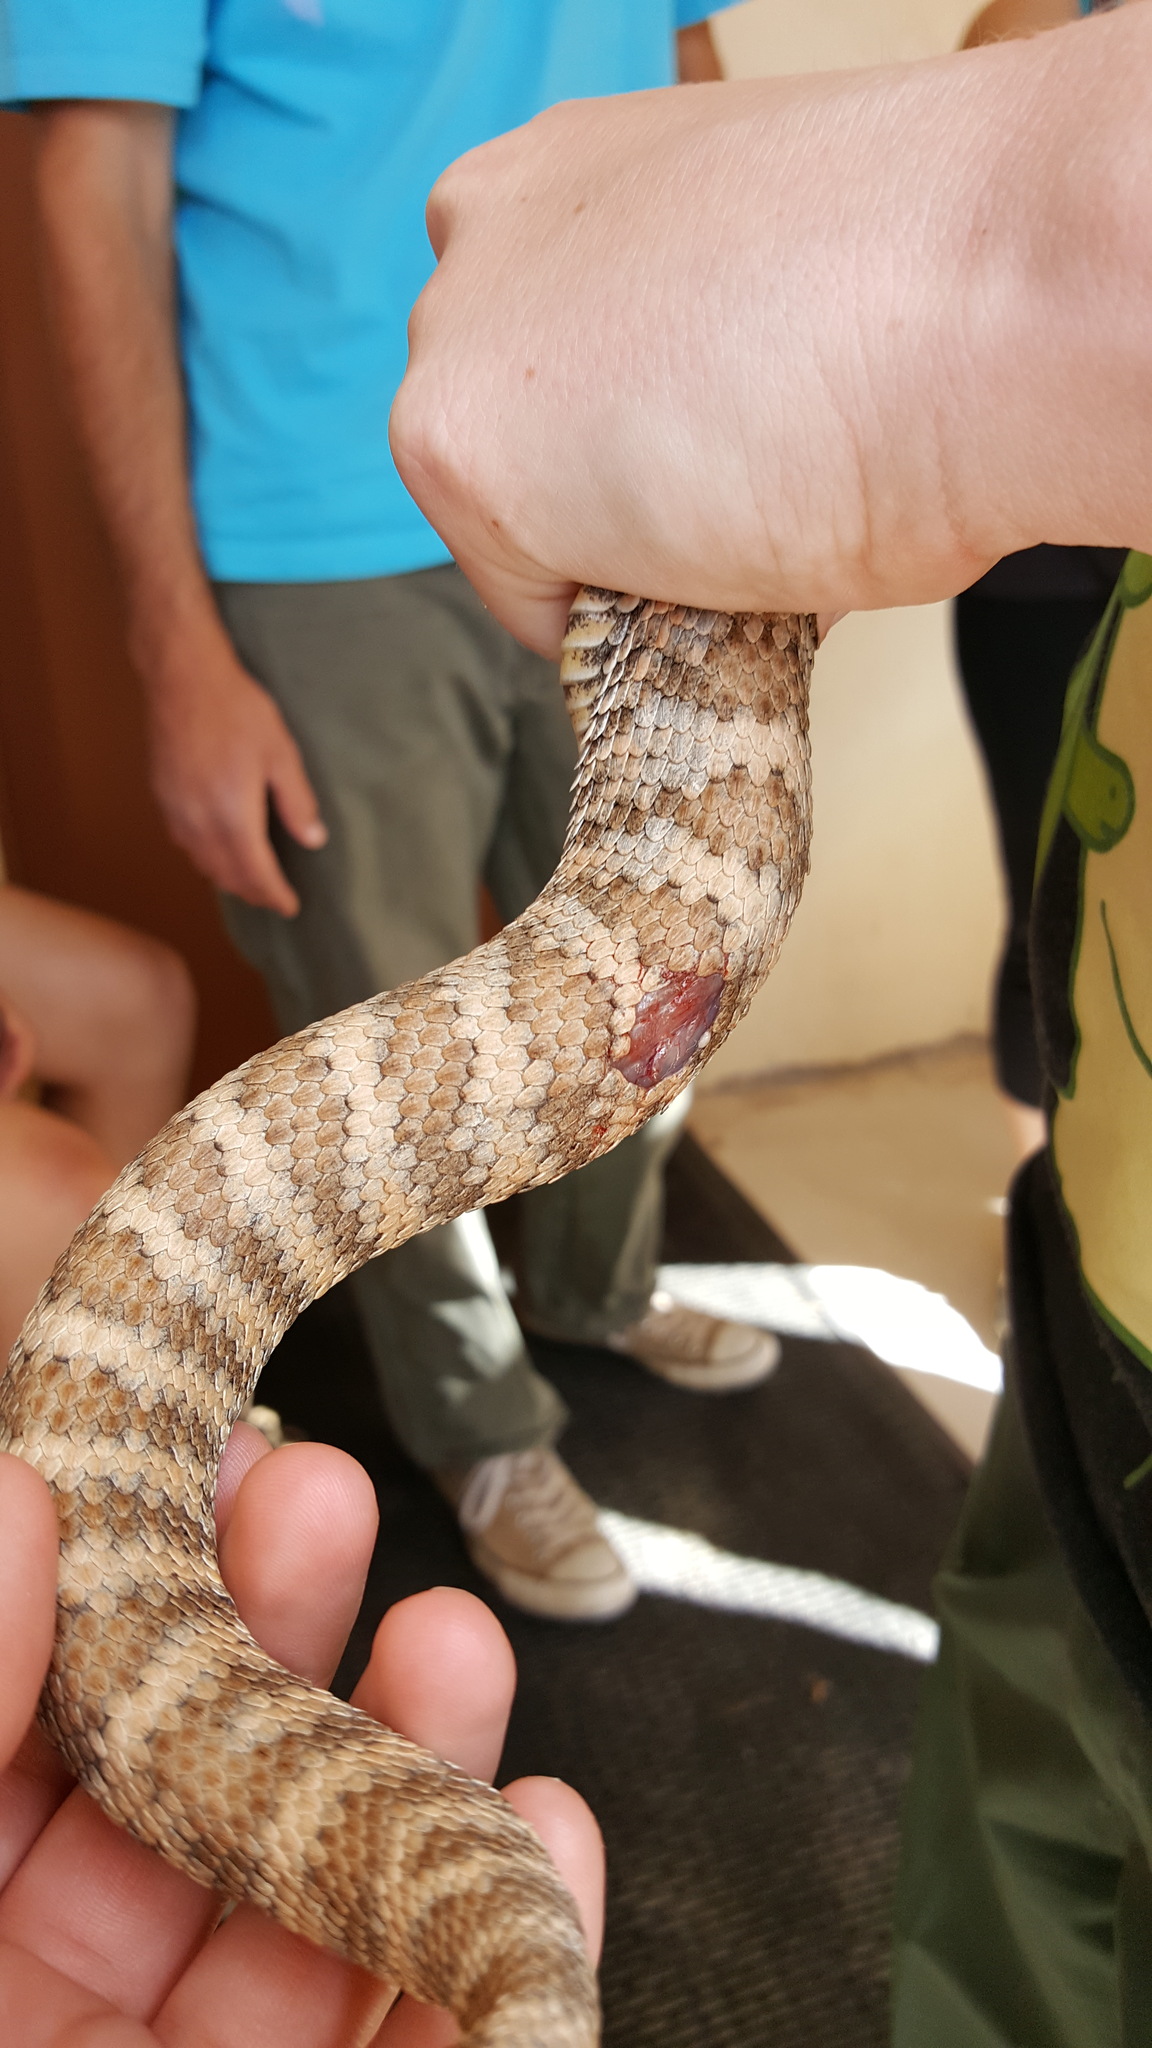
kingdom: Animalia
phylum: Chordata
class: Squamata
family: Viperidae
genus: Crotalus
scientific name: Crotalus stephensi
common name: Panamint rattlesnake
